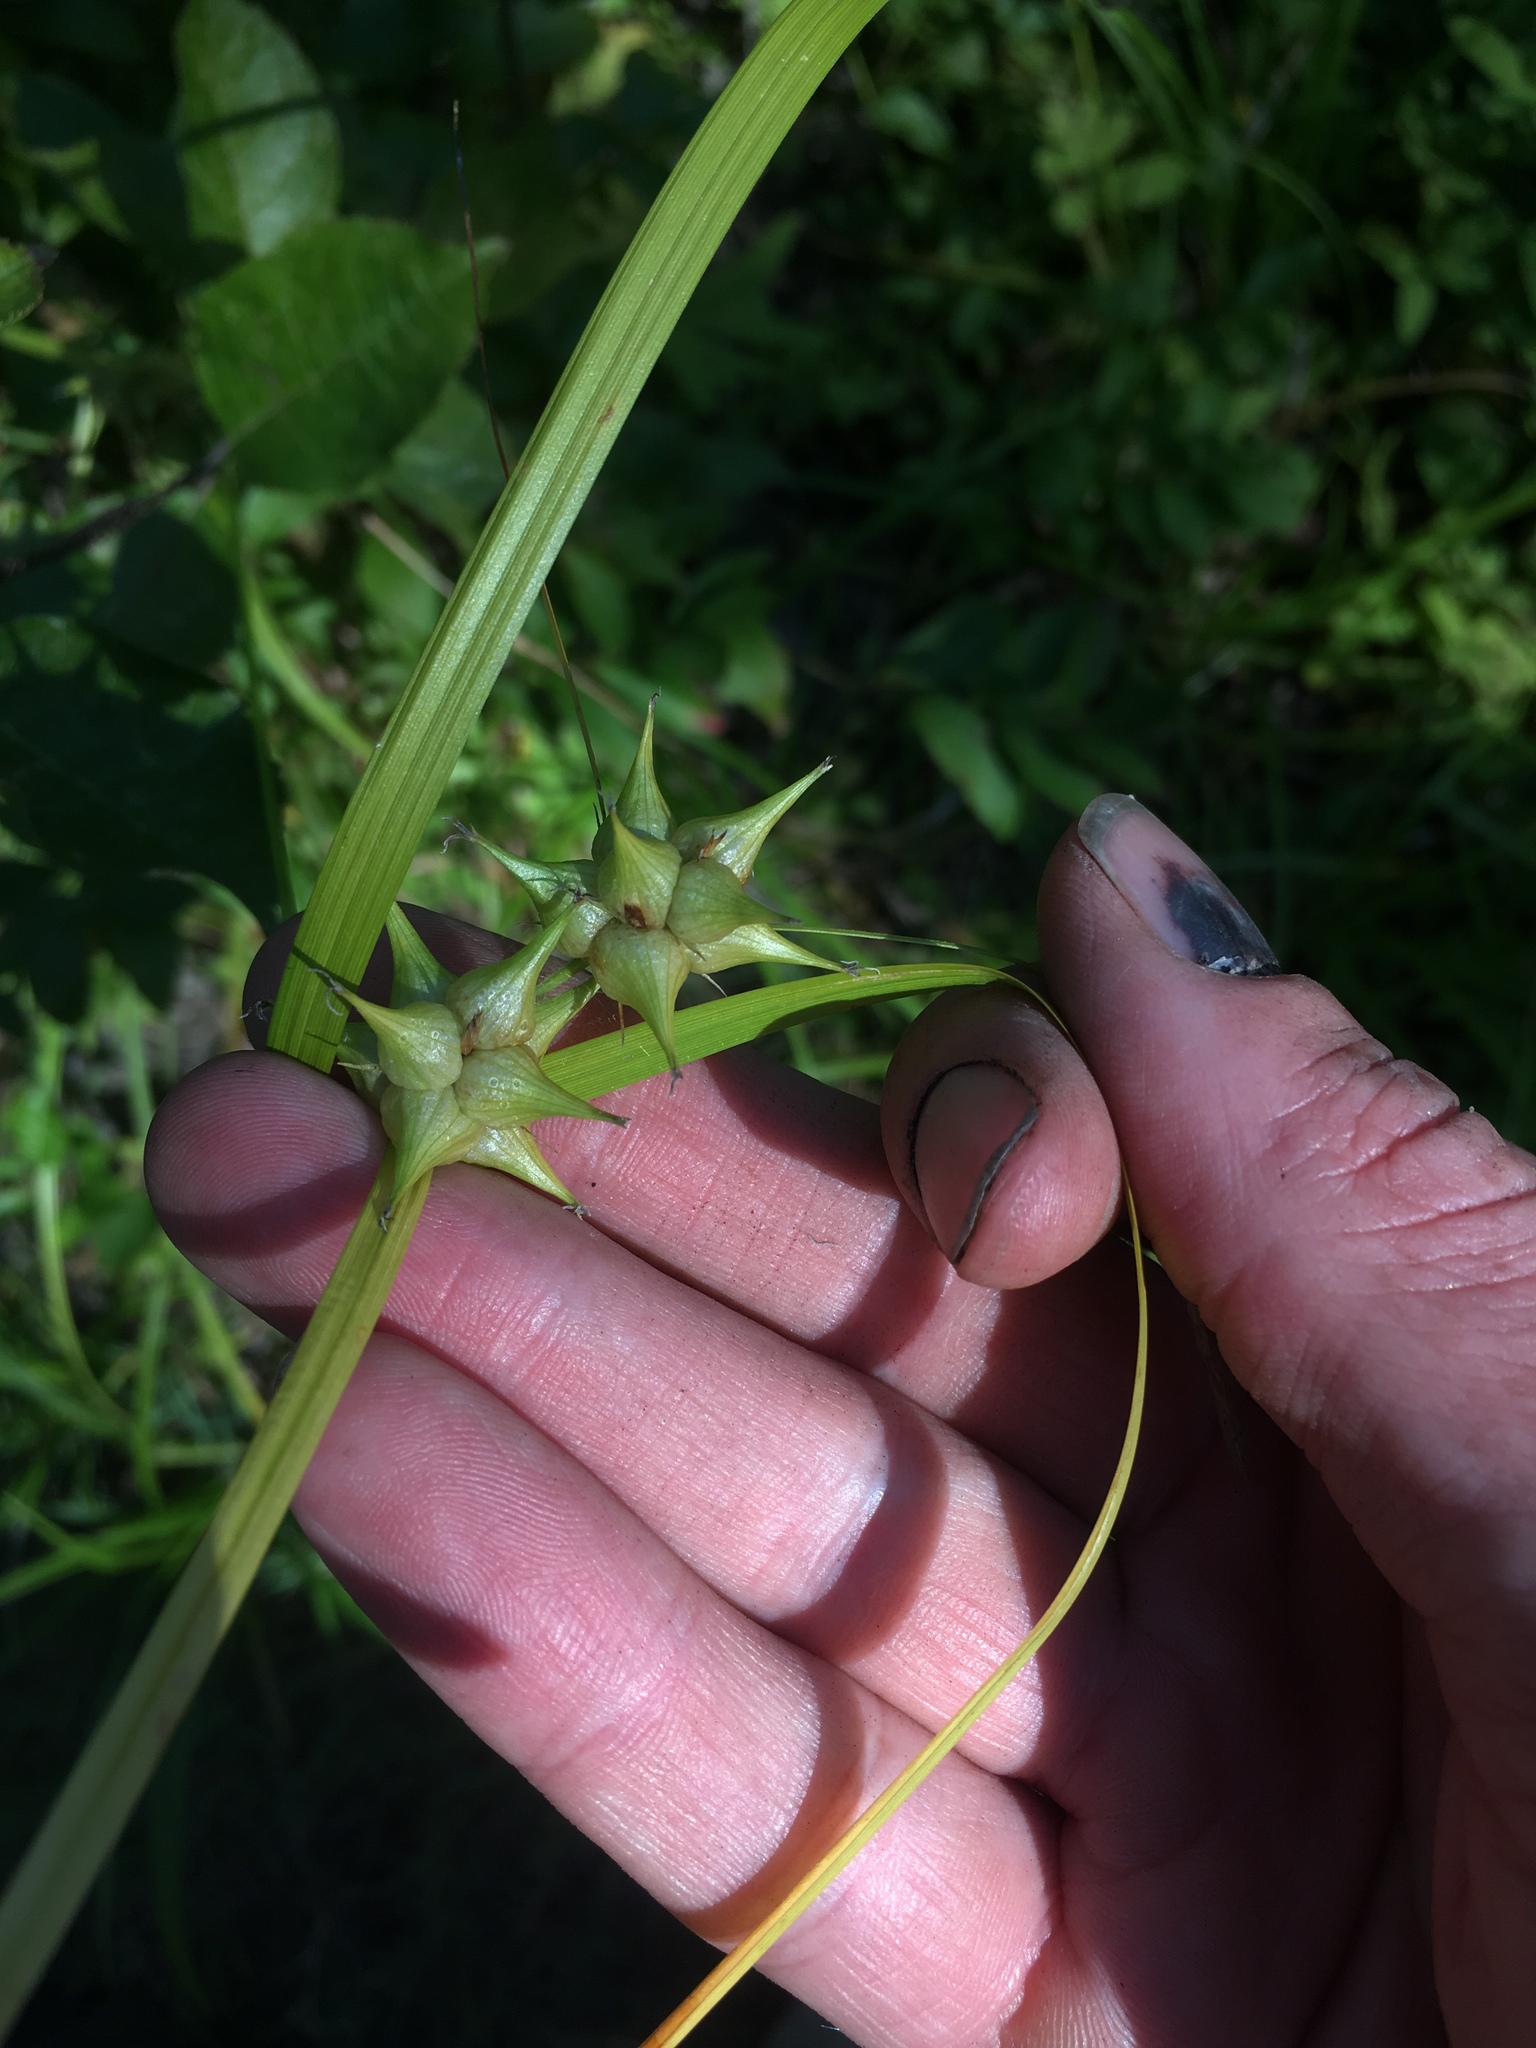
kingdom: Plantae
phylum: Tracheophyta
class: Liliopsida
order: Poales
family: Cyperaceae
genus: Carex
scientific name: Carex intumescens
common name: Greater bladder sedge
